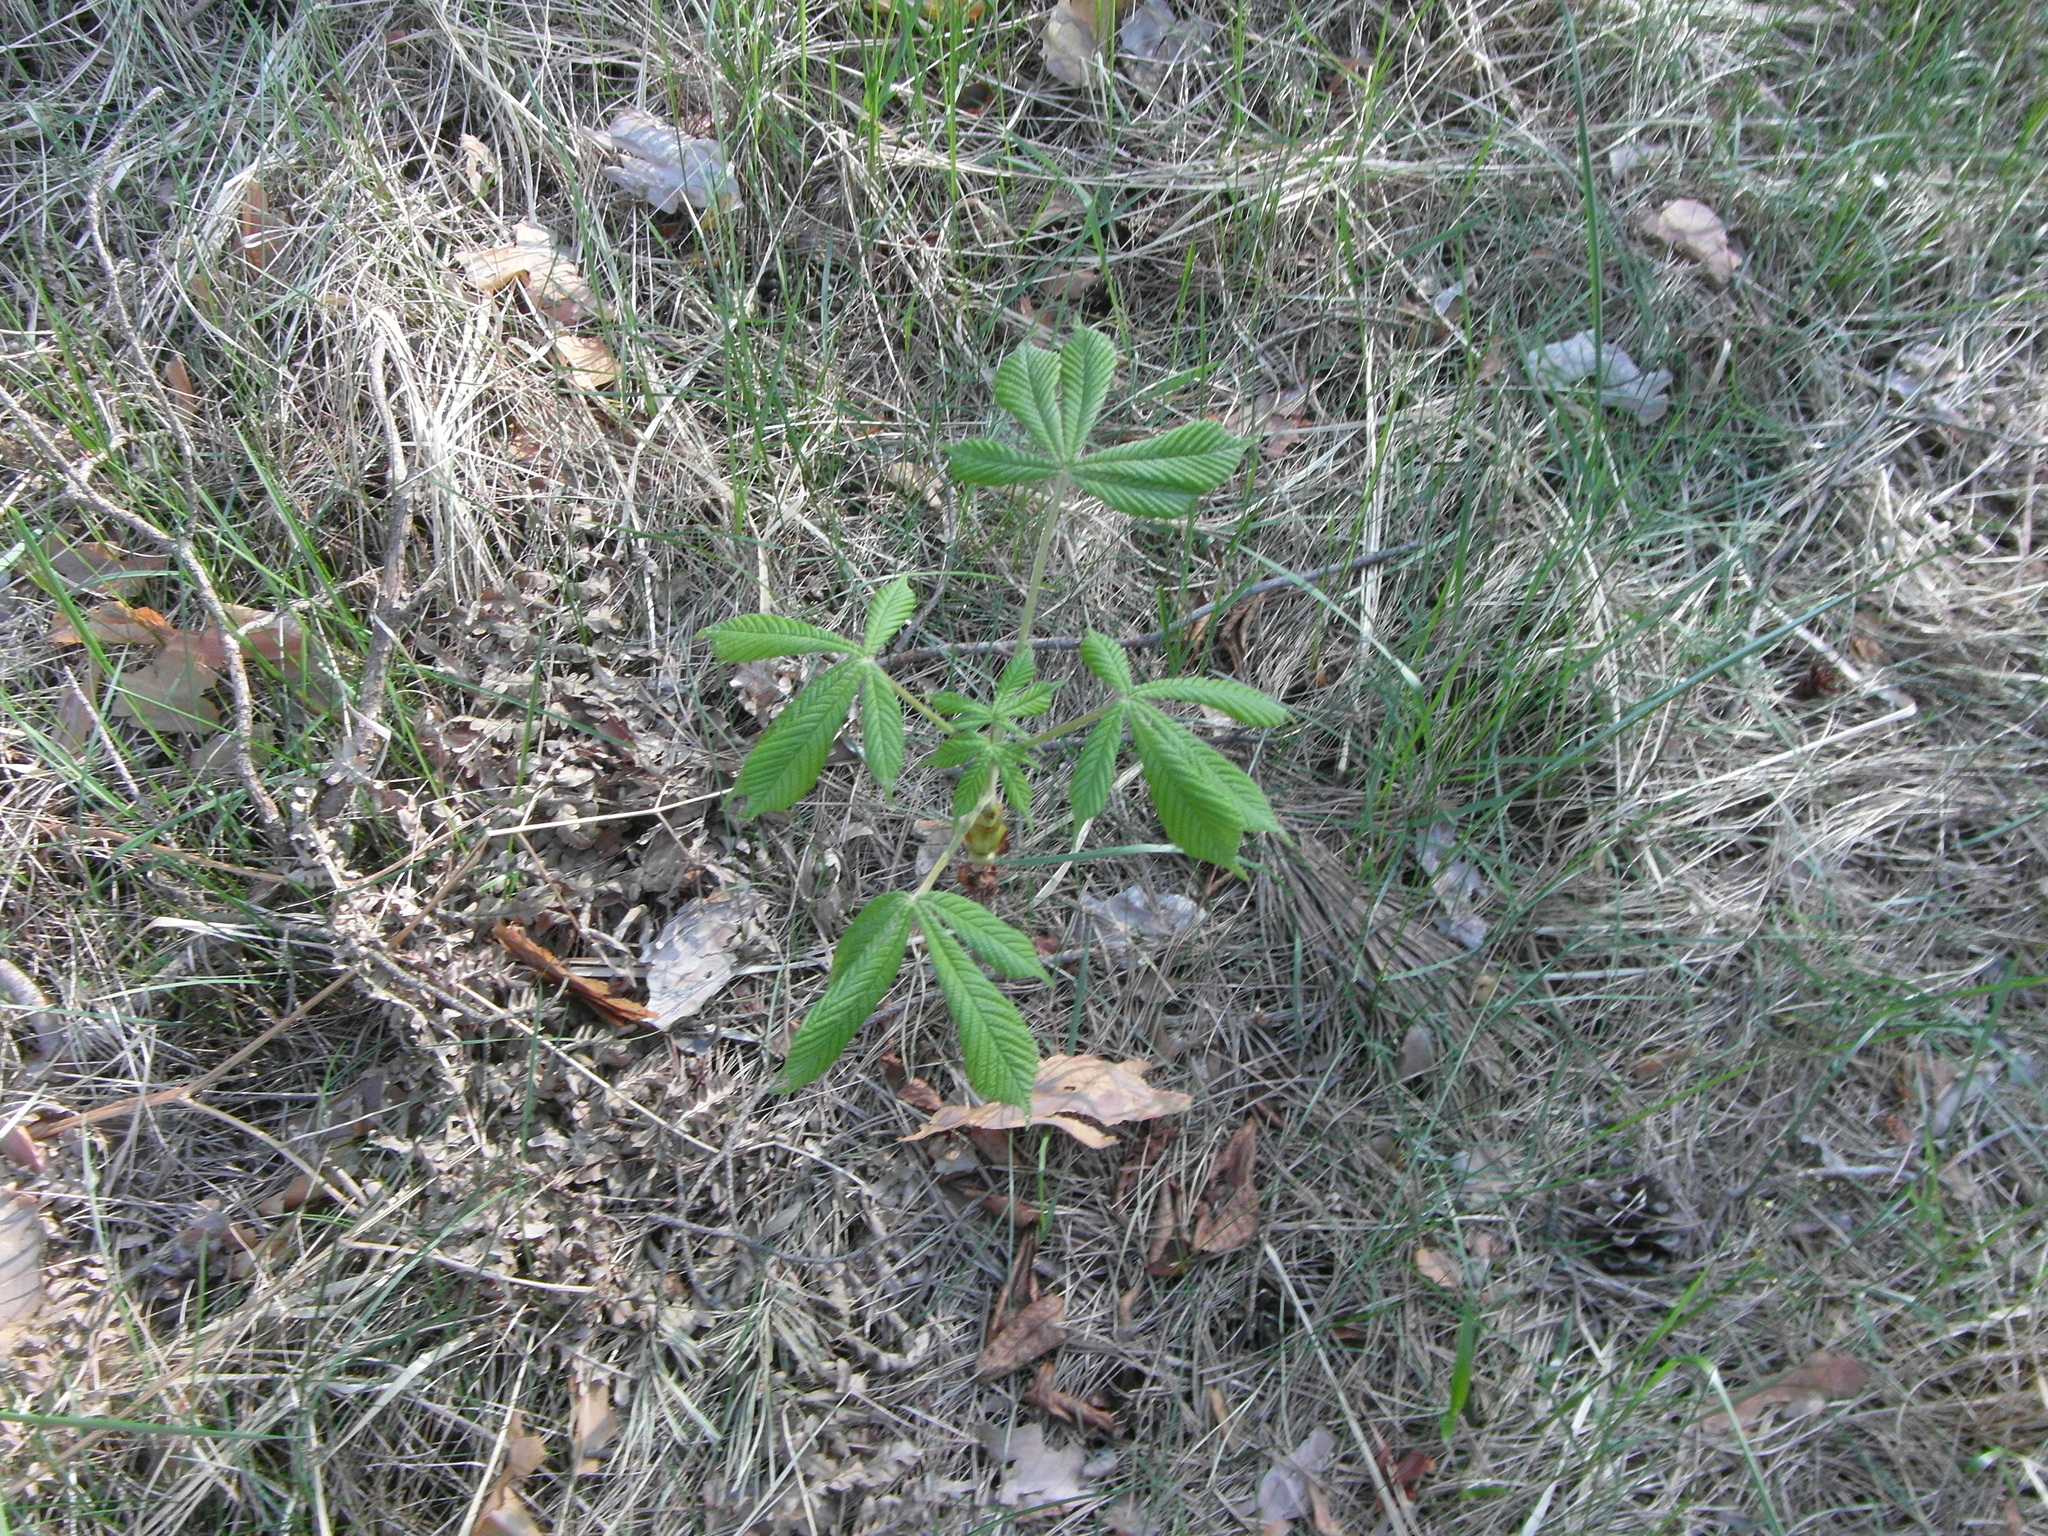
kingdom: Plantae
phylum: Tracheophyta
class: Magnoliopsida
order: Sapindales
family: Sapindaceae
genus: Aesculus
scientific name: Aesculus hippocastanum
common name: Horse-chestnut
